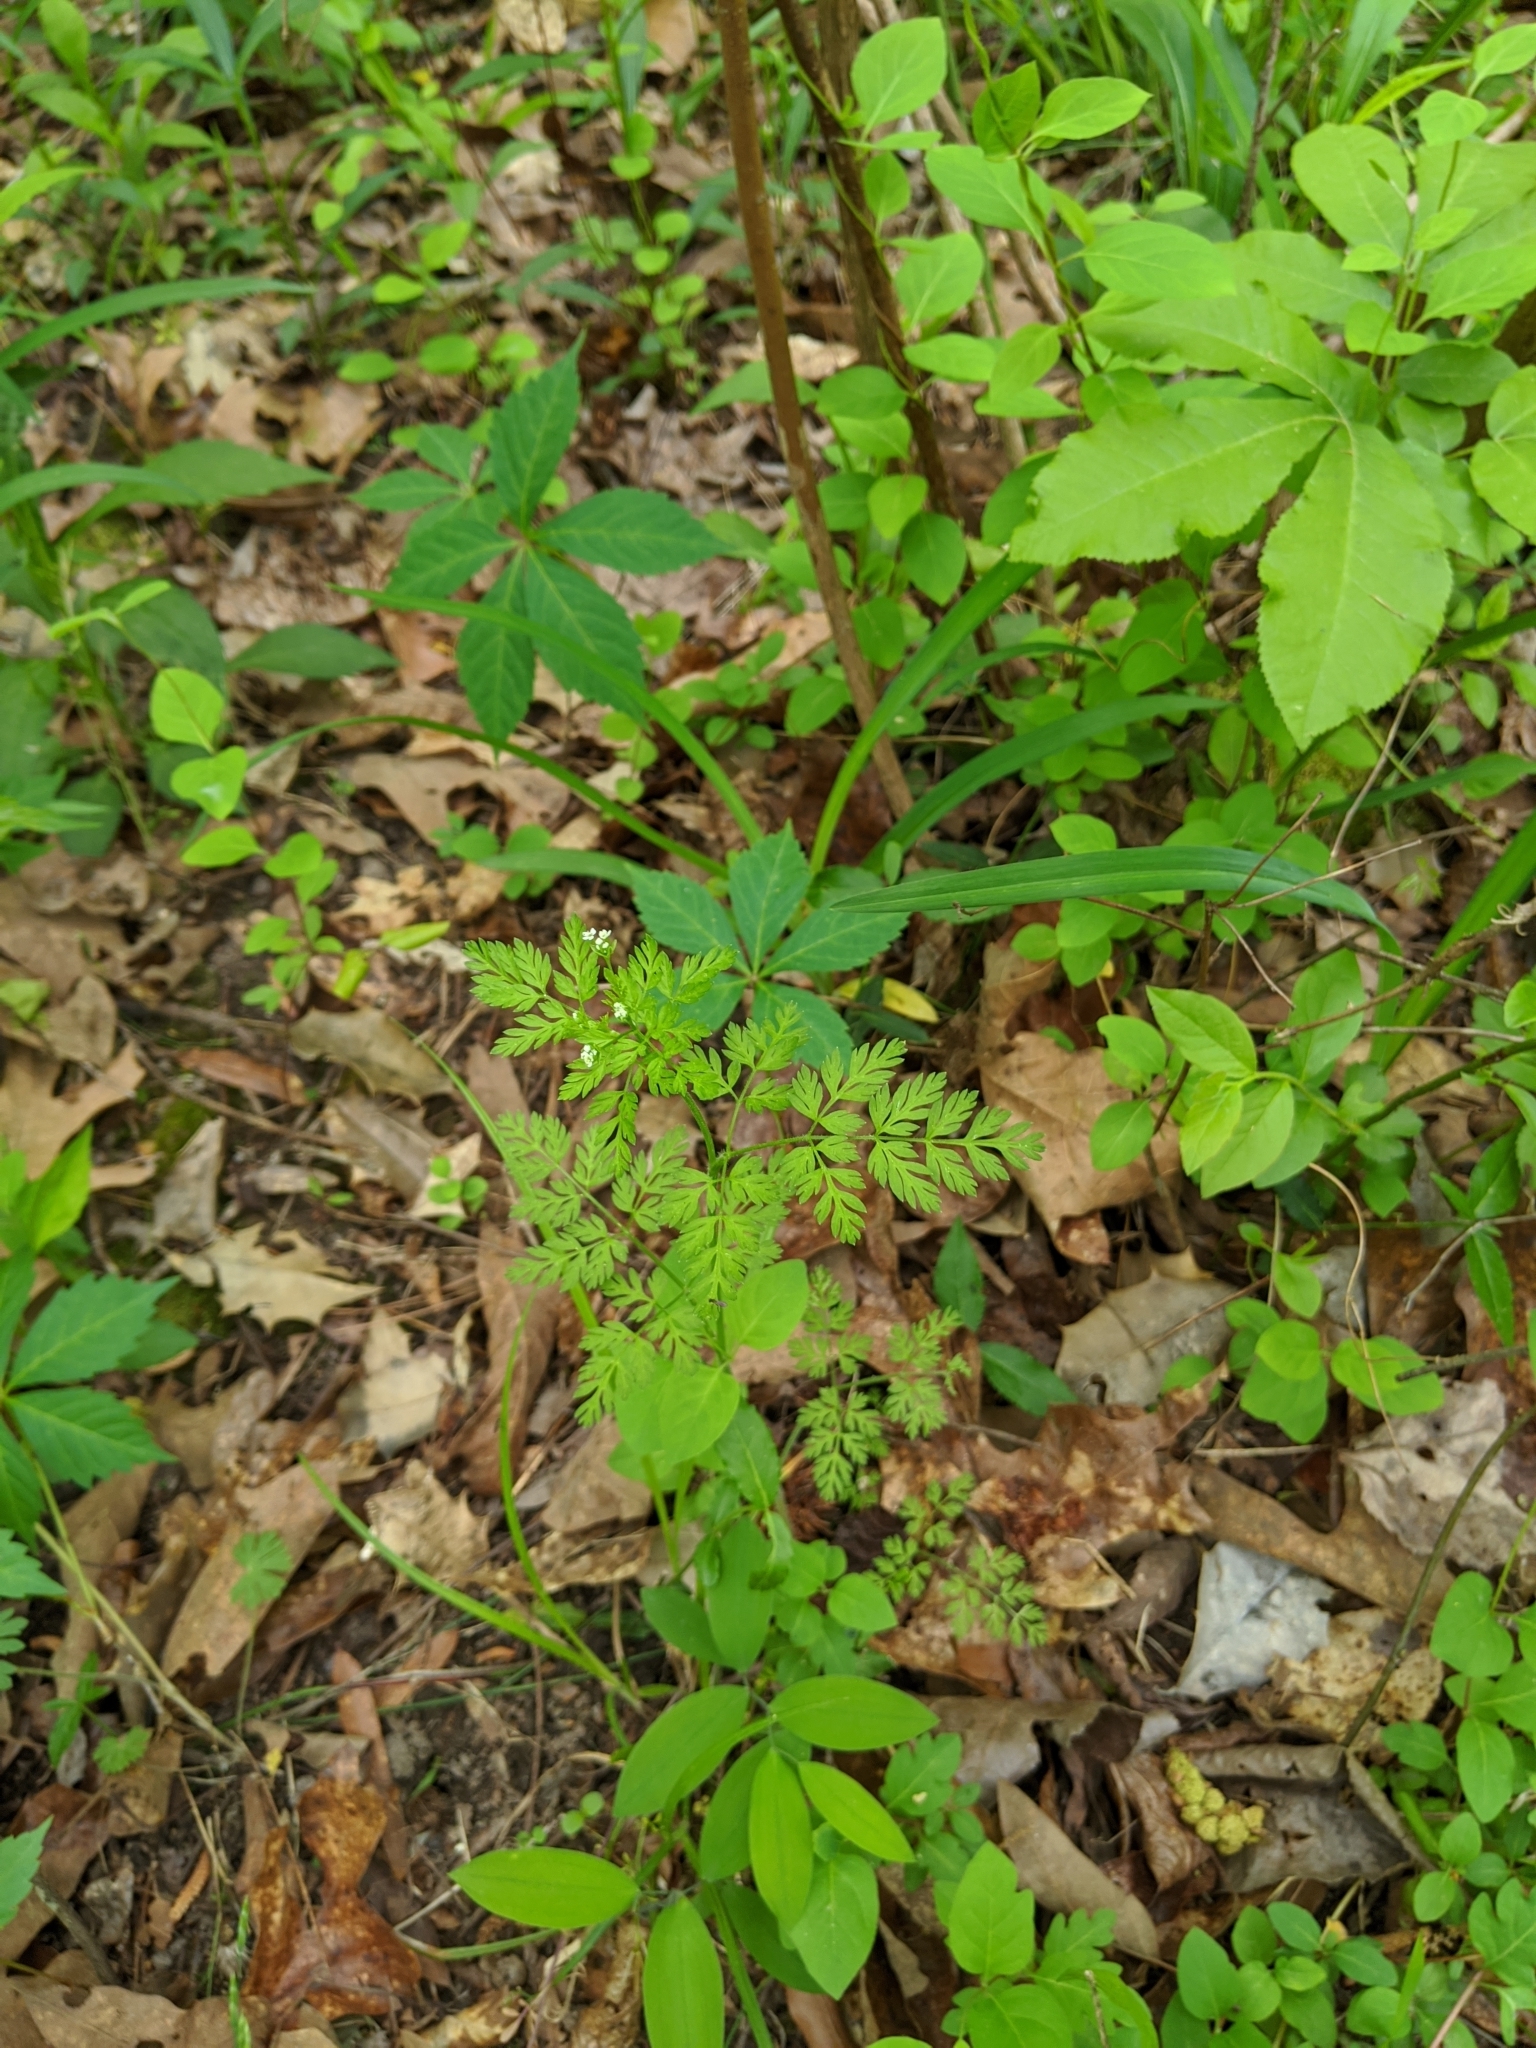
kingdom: Plantae
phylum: Tracheophyta
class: Magnoliopsida
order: Apiales
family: Apiaceae
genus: Chaerophyllum
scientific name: Chaerophyllum tainturieri
